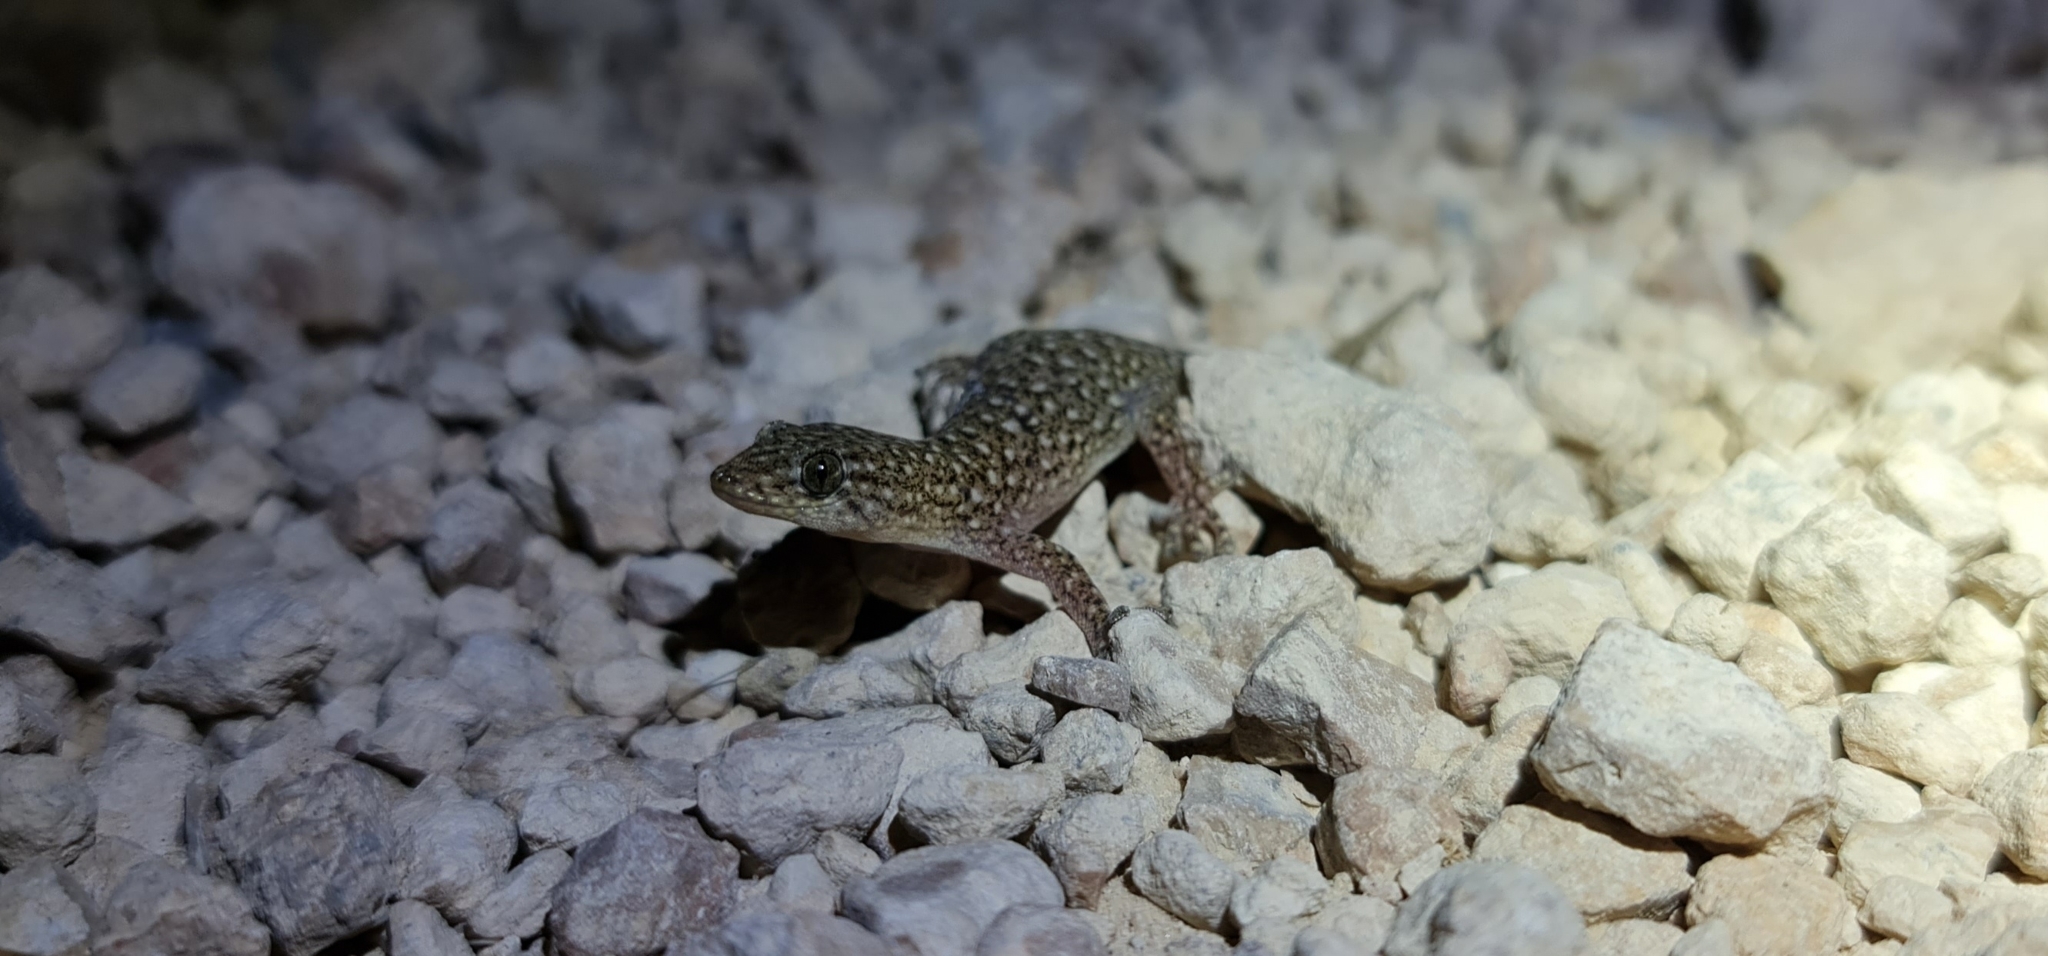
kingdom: Animalia
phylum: Chordata
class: Squamata
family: Gekkonidae
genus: Gehyra
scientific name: Gehyra lazelli
